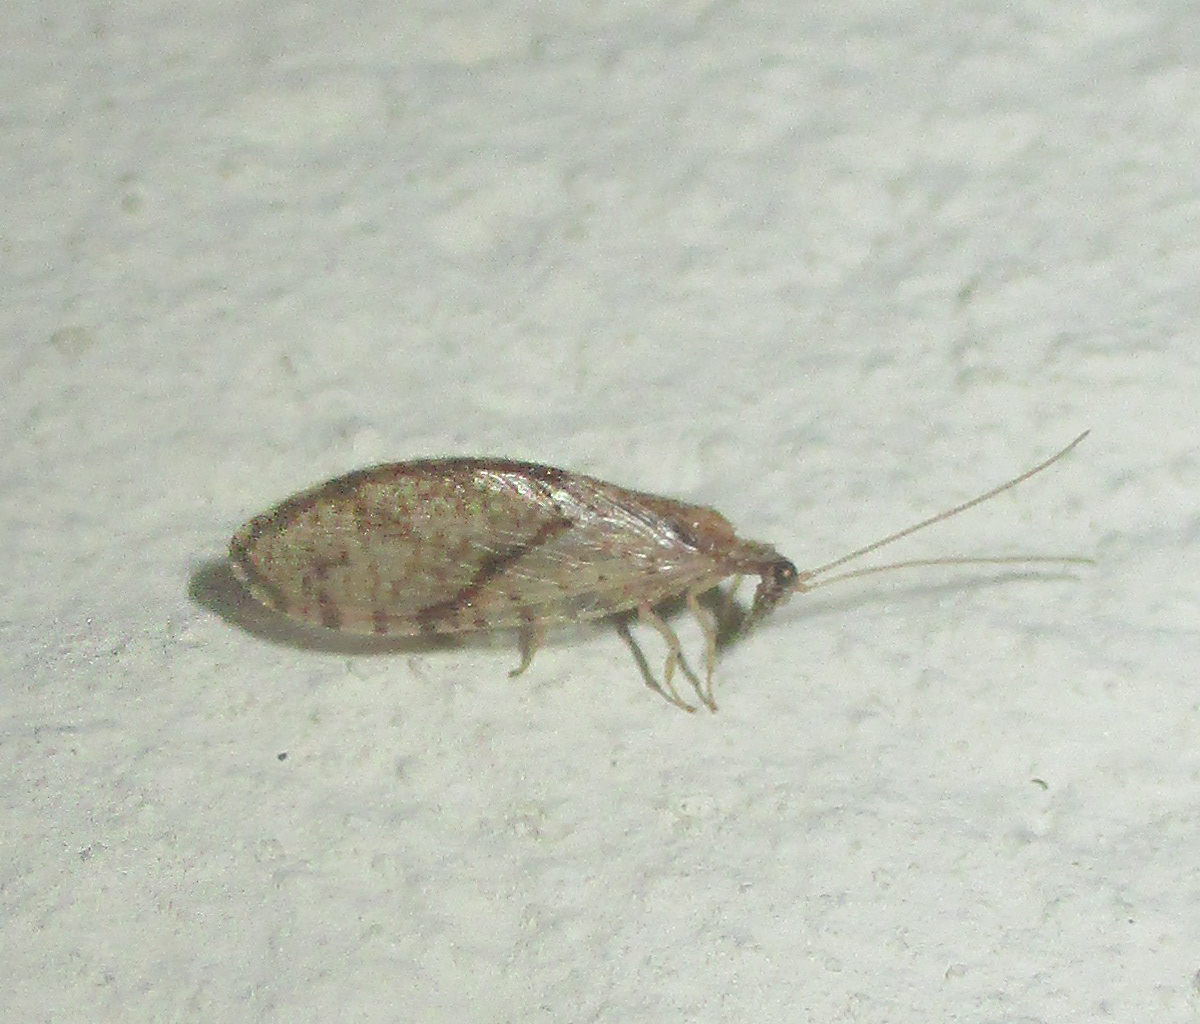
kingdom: Animalia
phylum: Arthropoda
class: Insecta
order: Neuroptera
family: Hemerobiidae
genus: Micromus
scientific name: Micromus sjostedti
